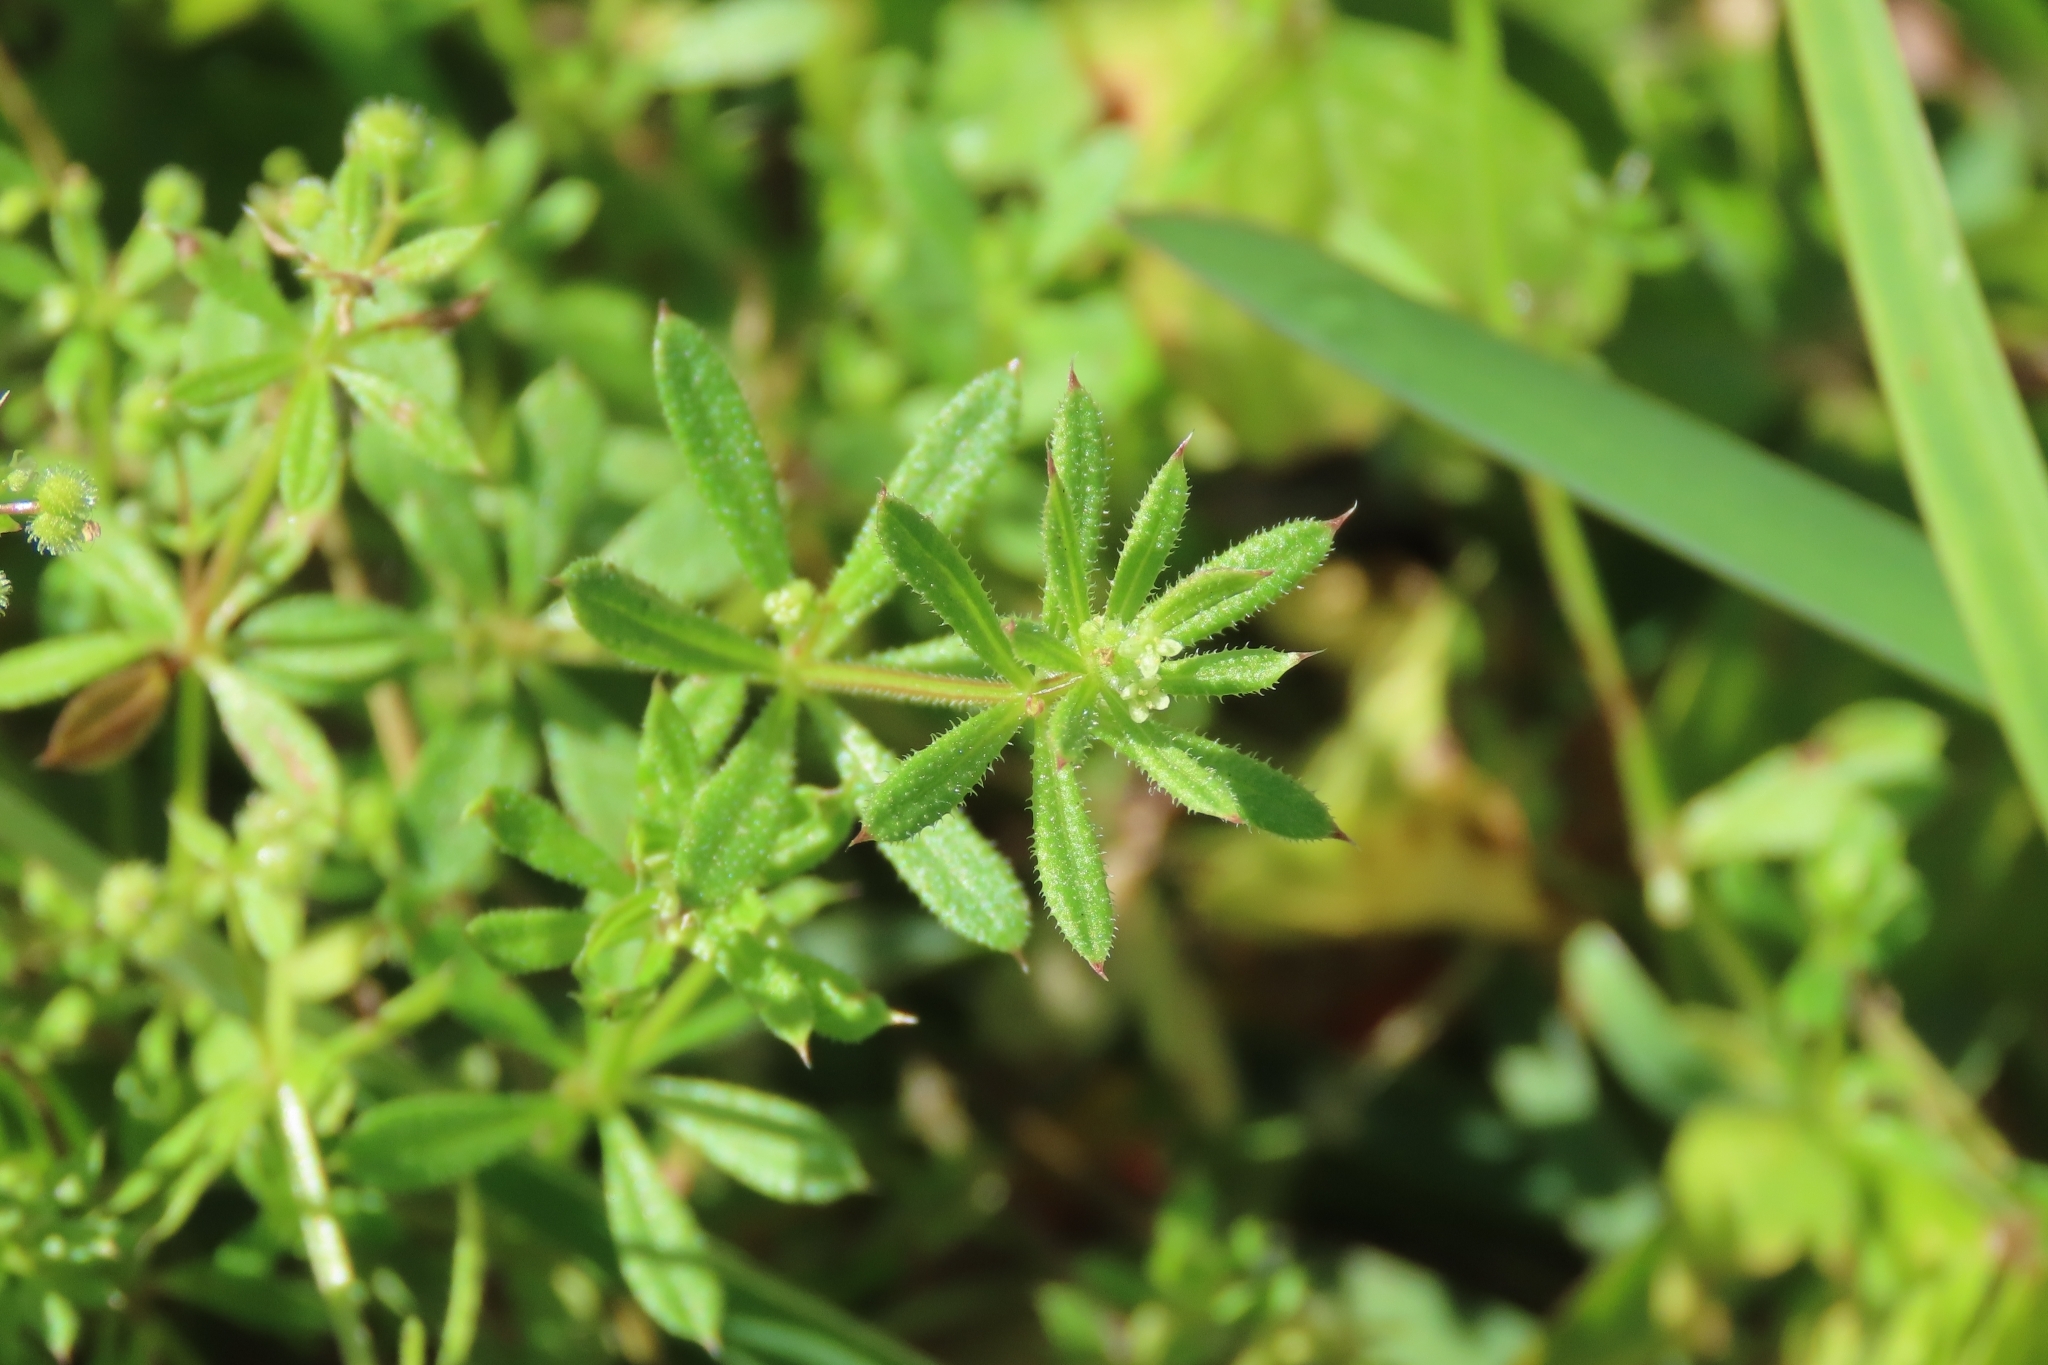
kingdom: Plantae
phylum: Tracheophyta
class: Magnoliopsida
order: Gentianales
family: Rubiaceae
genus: Galium
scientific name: Galium spurium
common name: False cleavers
